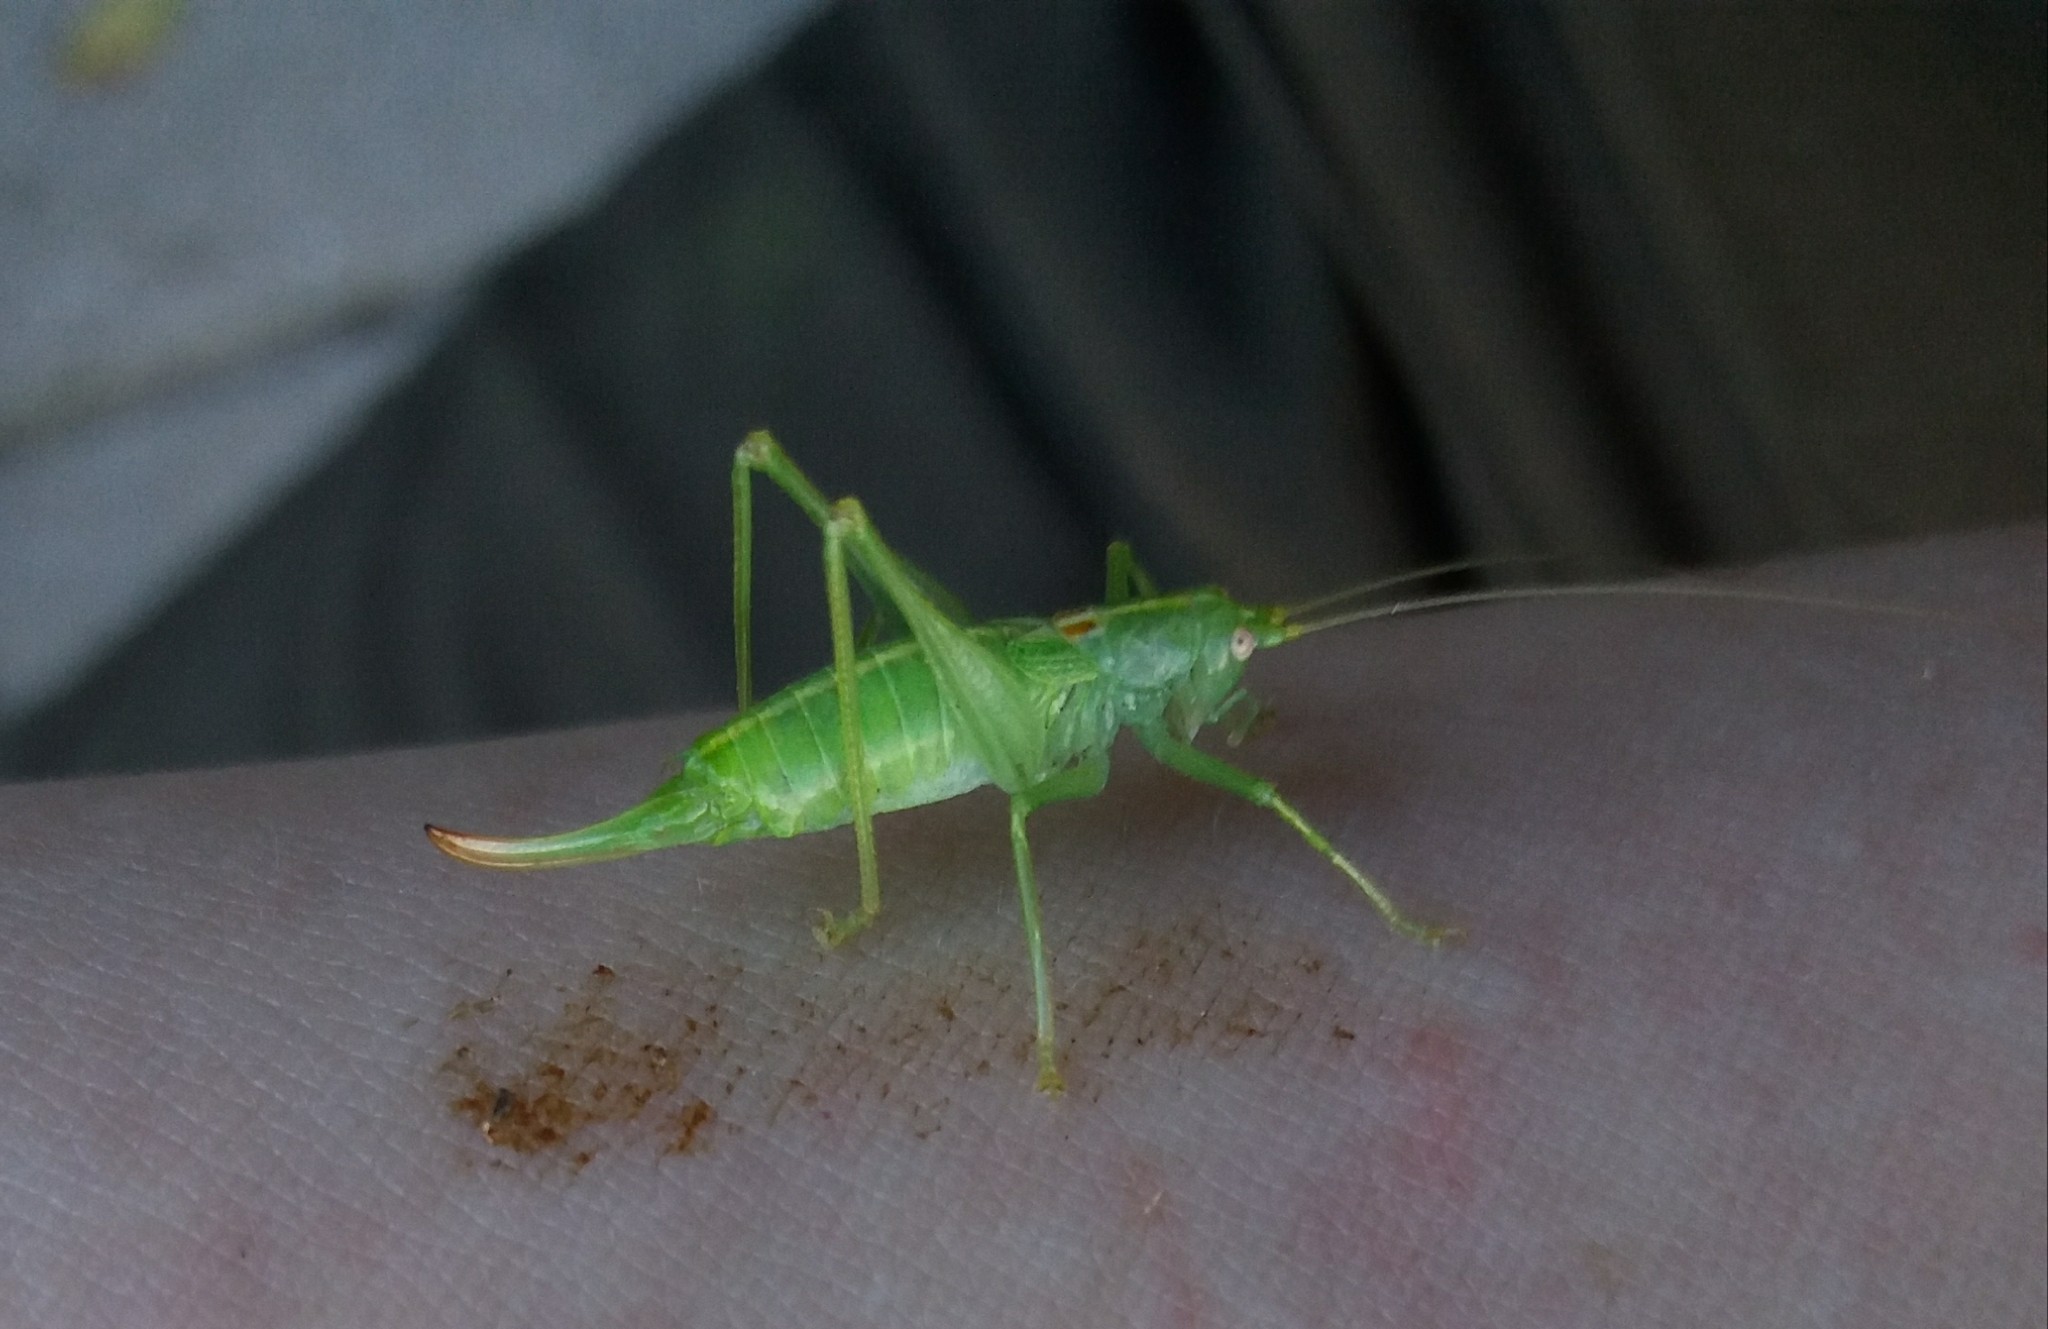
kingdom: Animalia
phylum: Arthropoda
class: Insecta
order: Orthoptera
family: Tettigoniidae
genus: Meconema
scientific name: Meconema meridionale
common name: Southern oak bush-cricket
